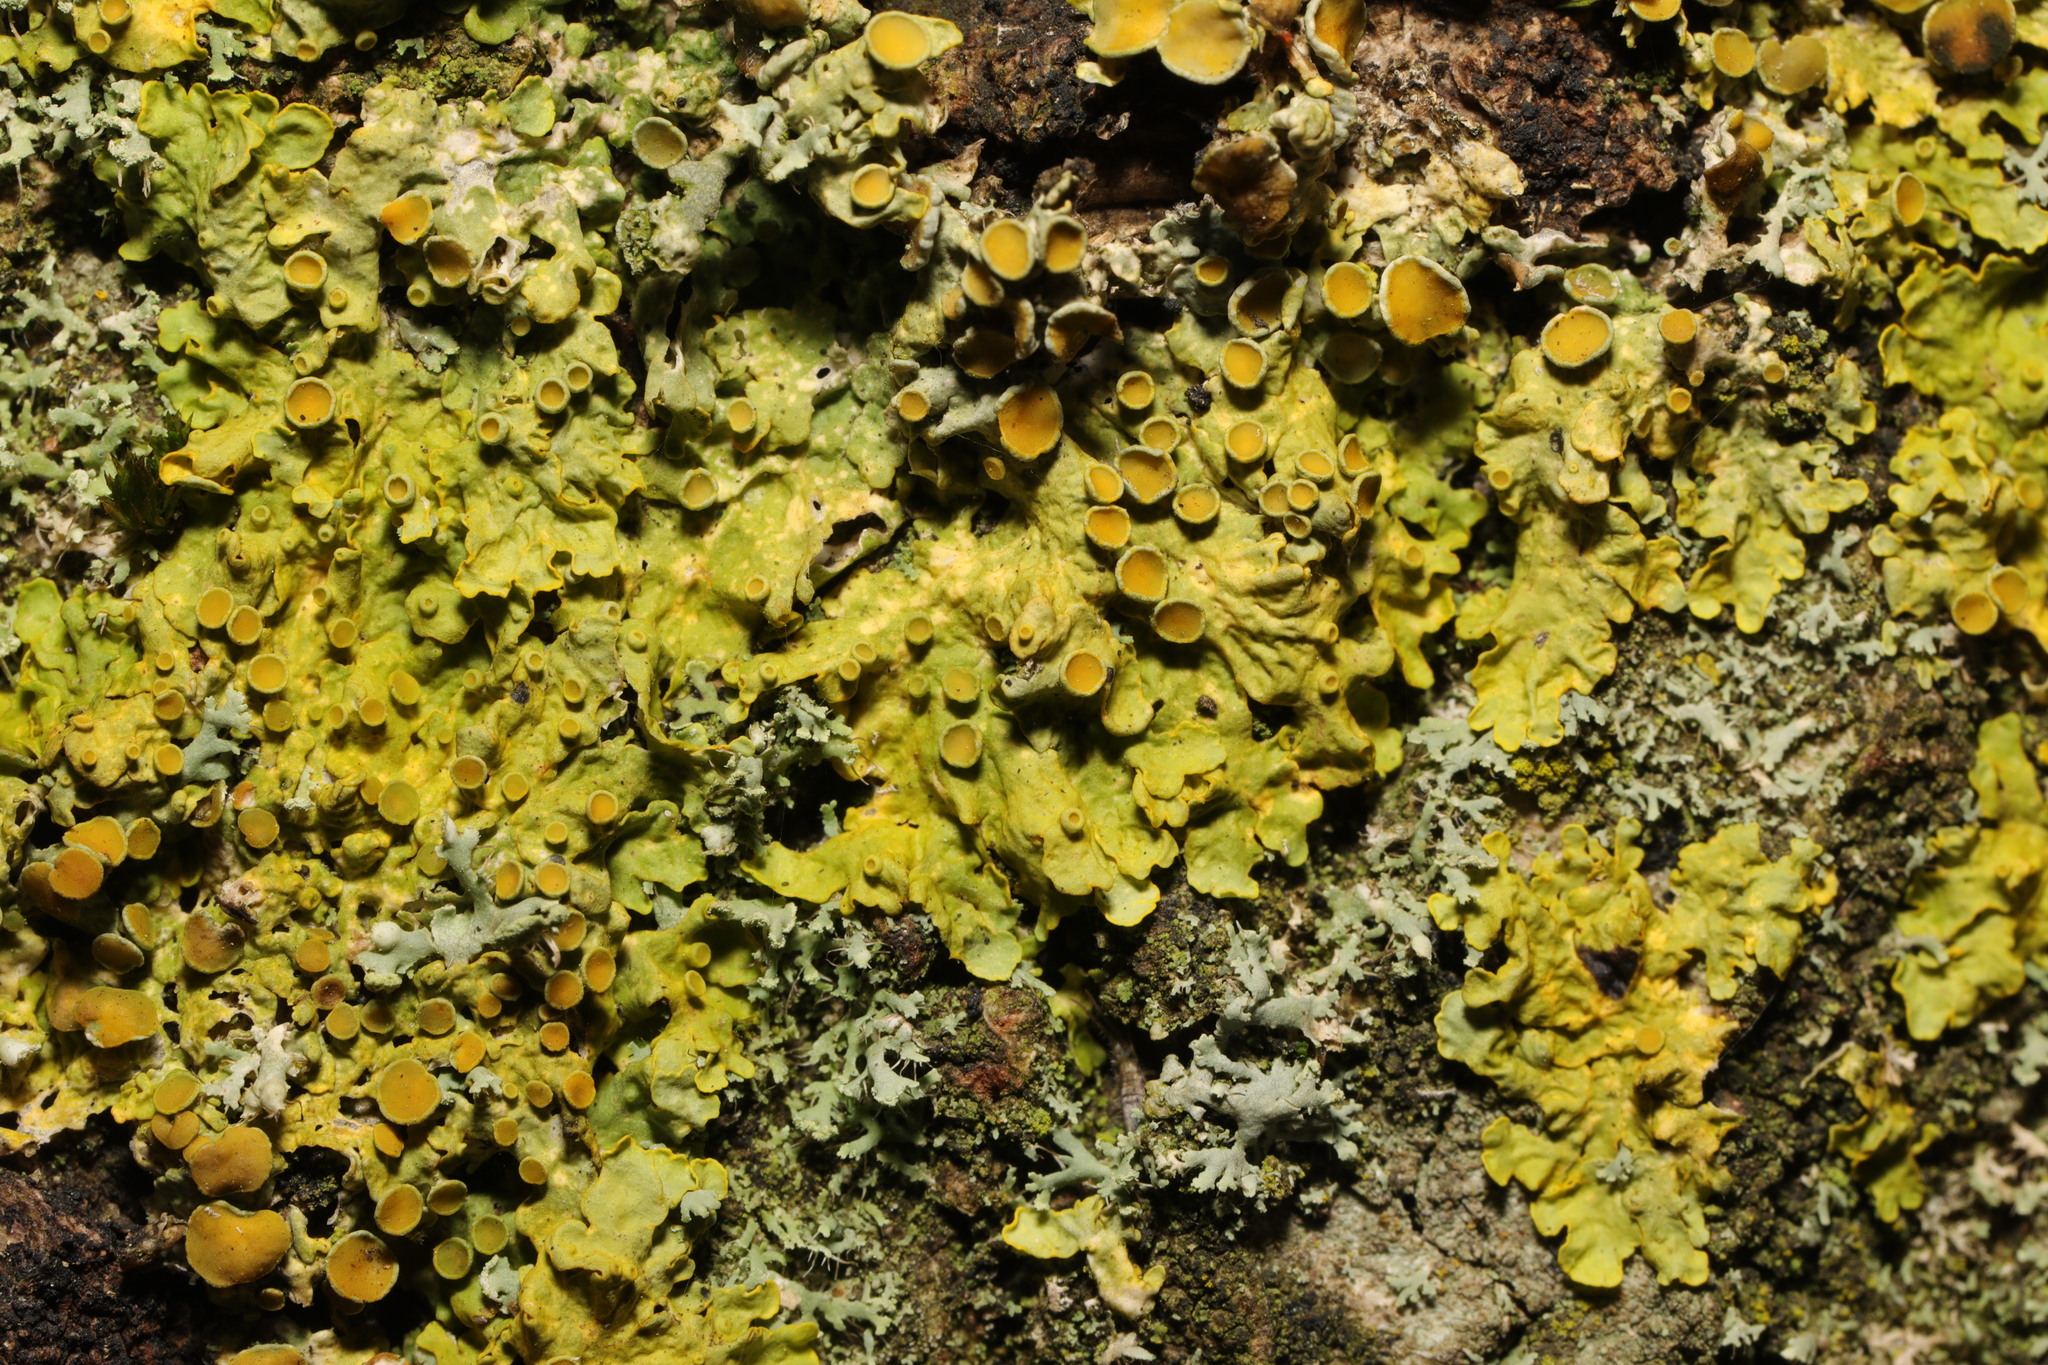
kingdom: Fungi
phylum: Ascomycota
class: Lecanoromycetes
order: Teloschistales
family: Teloschistaceae
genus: Xanthoria
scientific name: Xanthoria parietina
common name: Common orange lichen
